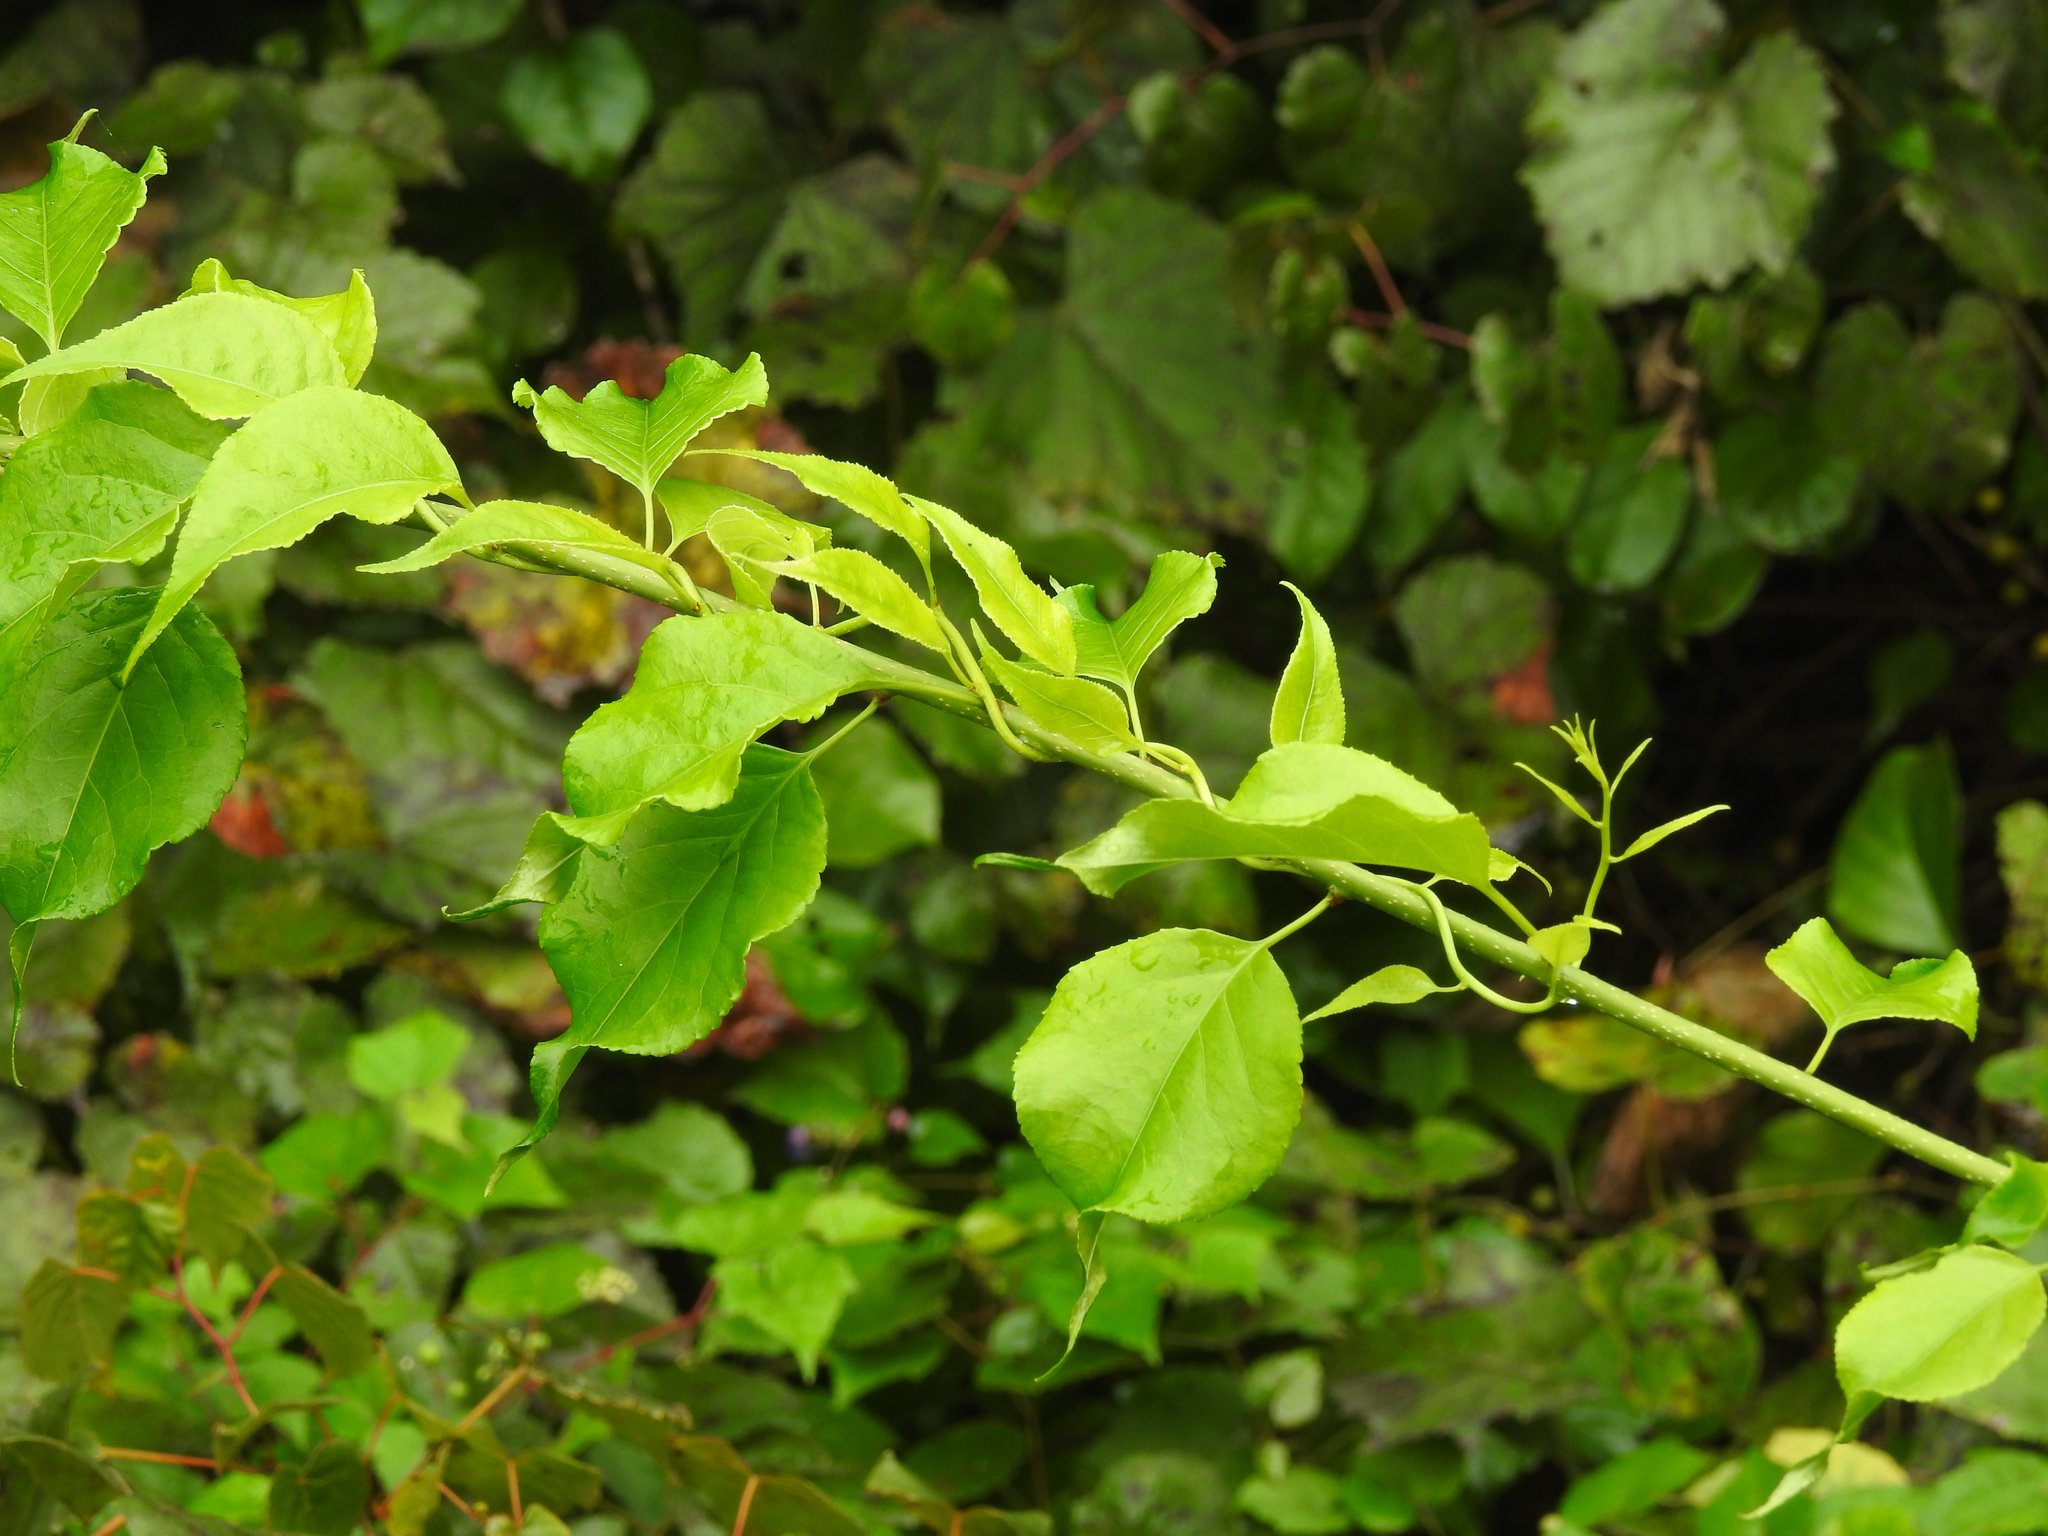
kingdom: Plantae
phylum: Tracheophyta
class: Magnoliopsida
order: Celastrales
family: Celastraceae
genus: Celastrus
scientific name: Celastrus orbiculatus
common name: Oriental bittersweet
